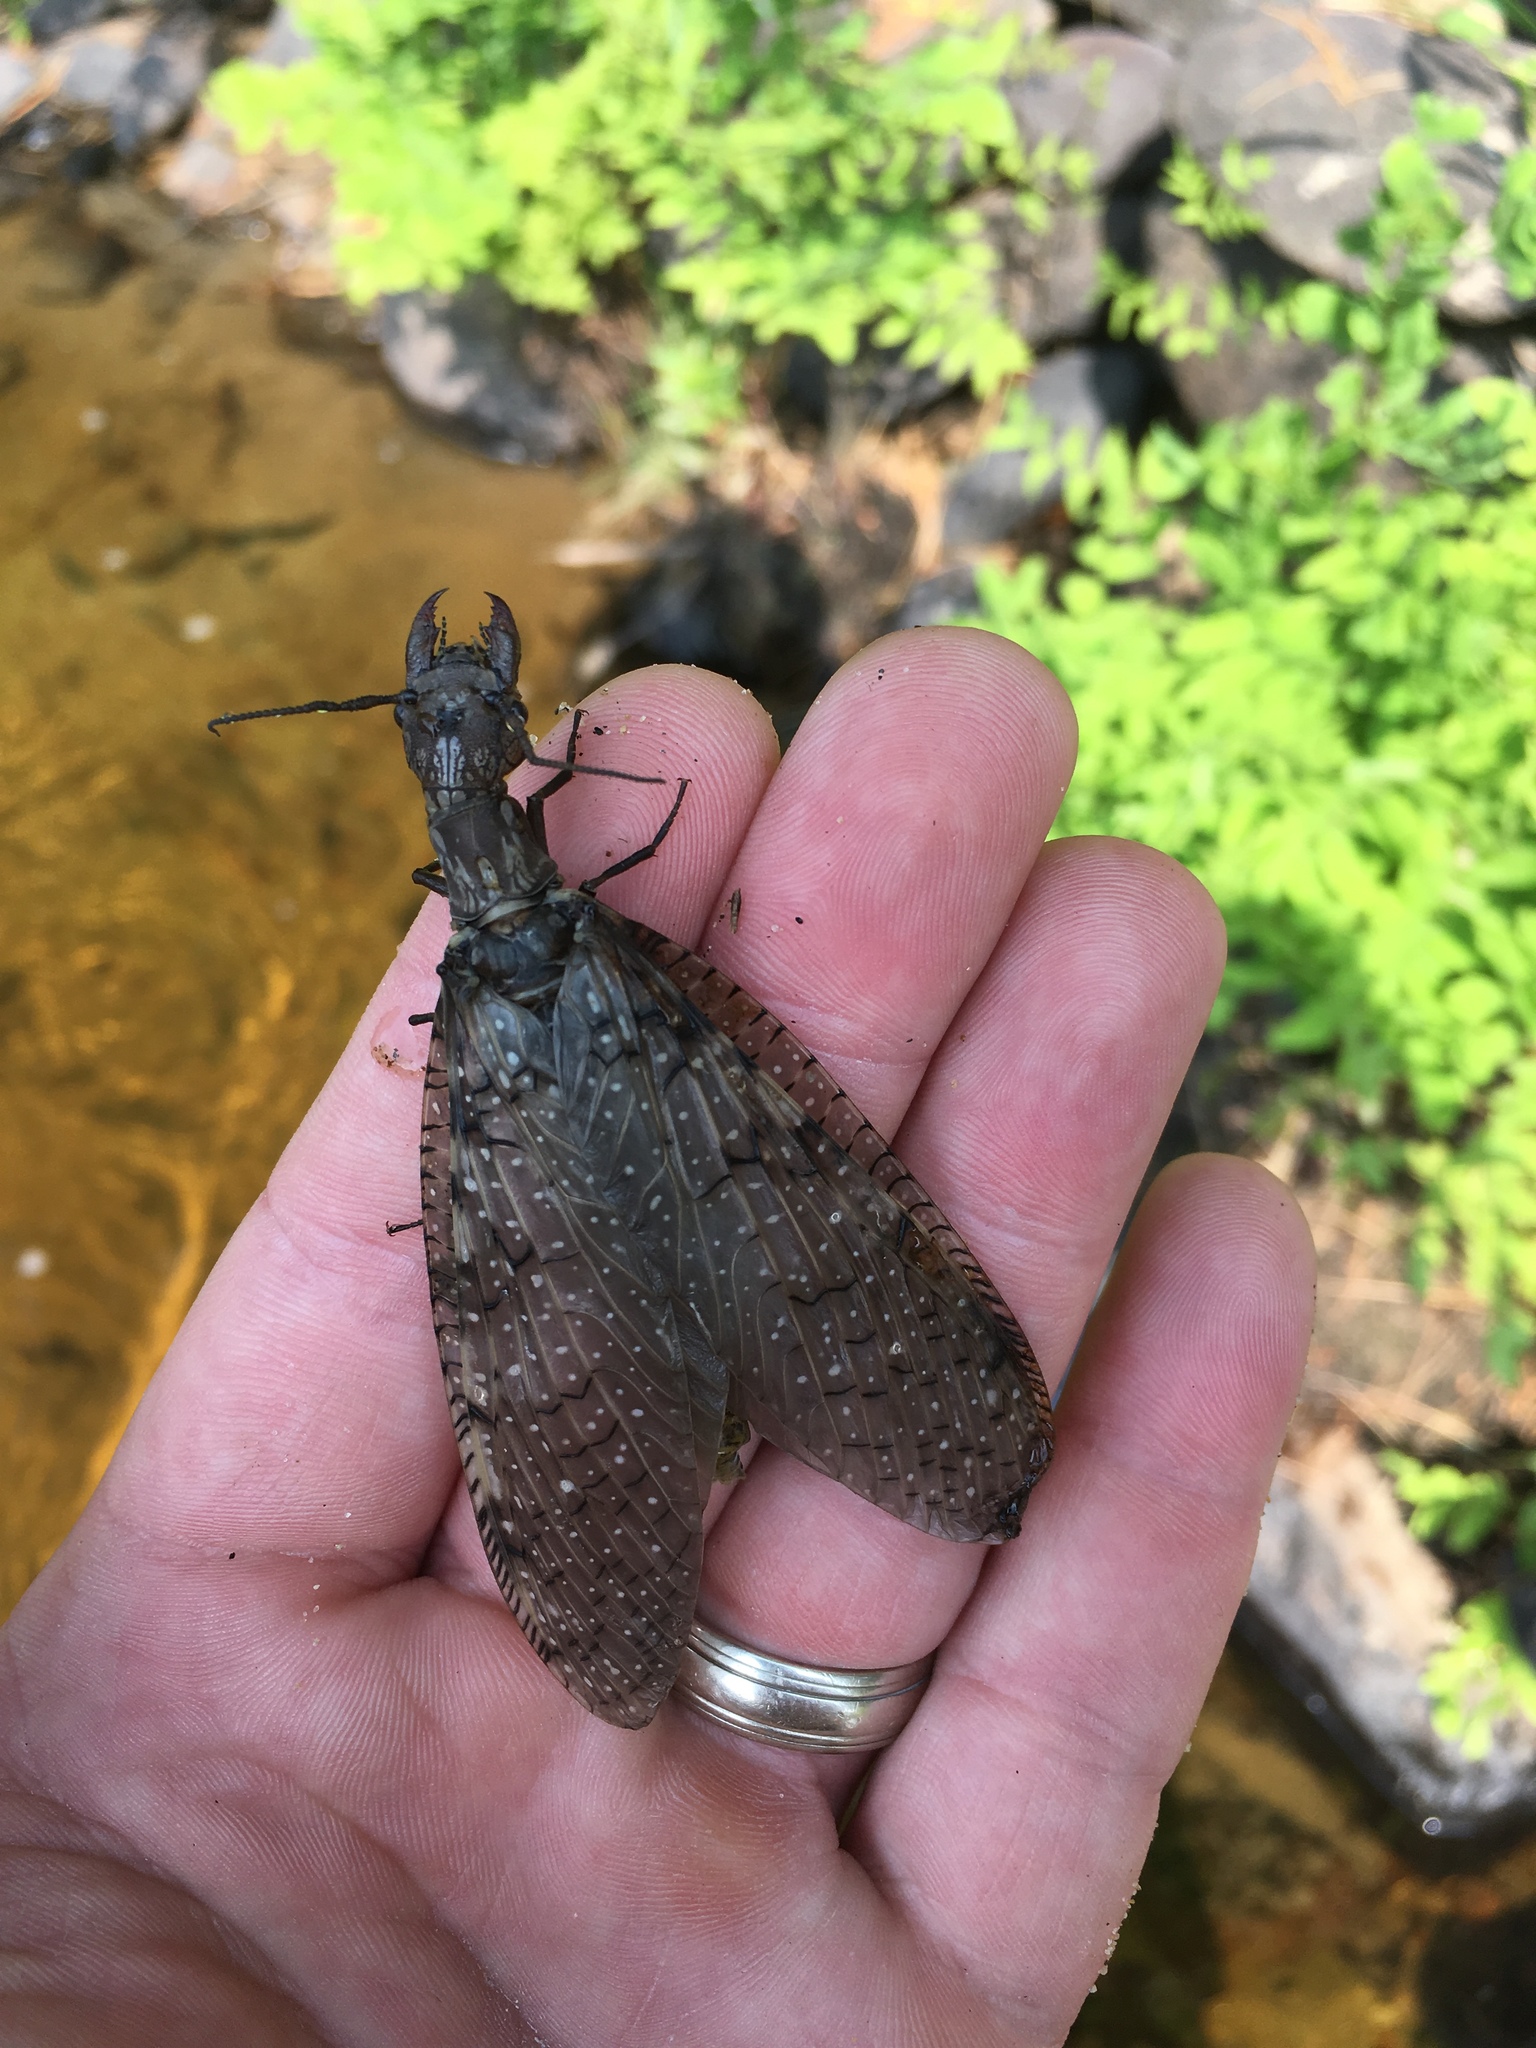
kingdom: Animalia
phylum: Arthropoda
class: Insecta
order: Megaloptera
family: Corydalidae
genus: Corydalus
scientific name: Corydalus cornutus
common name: Dobsonfly
